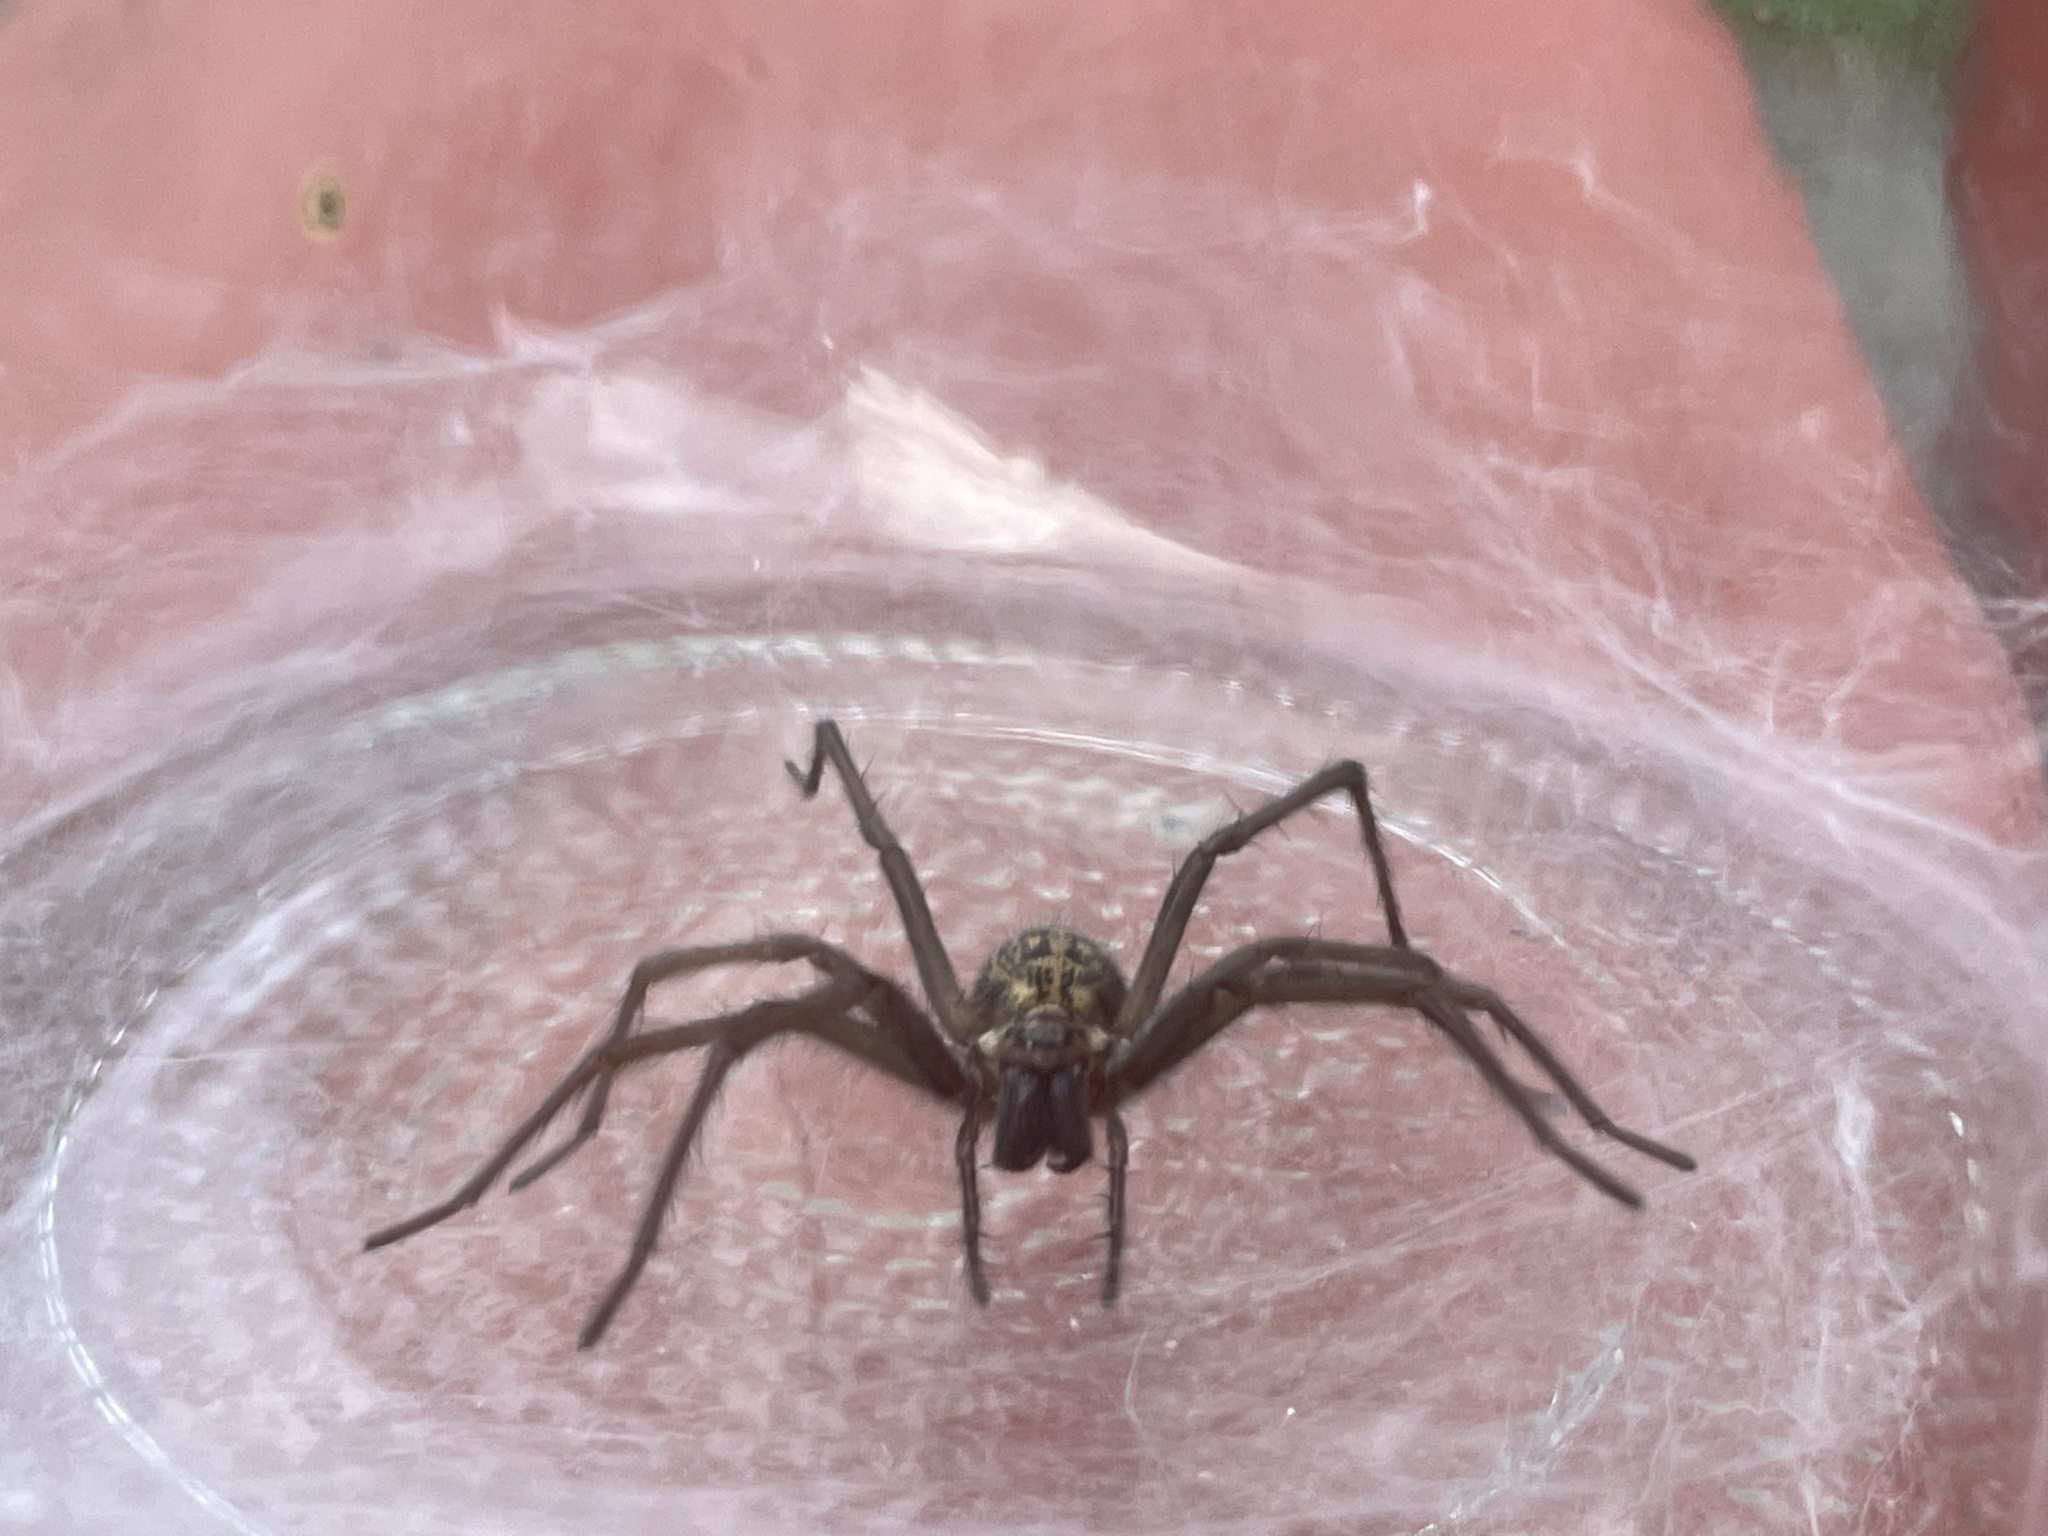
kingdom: Animalia
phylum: Arthropoda
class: Arachnida
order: Araneae
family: Agelenidae
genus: Eratigena
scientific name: Eratigena duellica
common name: Giant house spider
